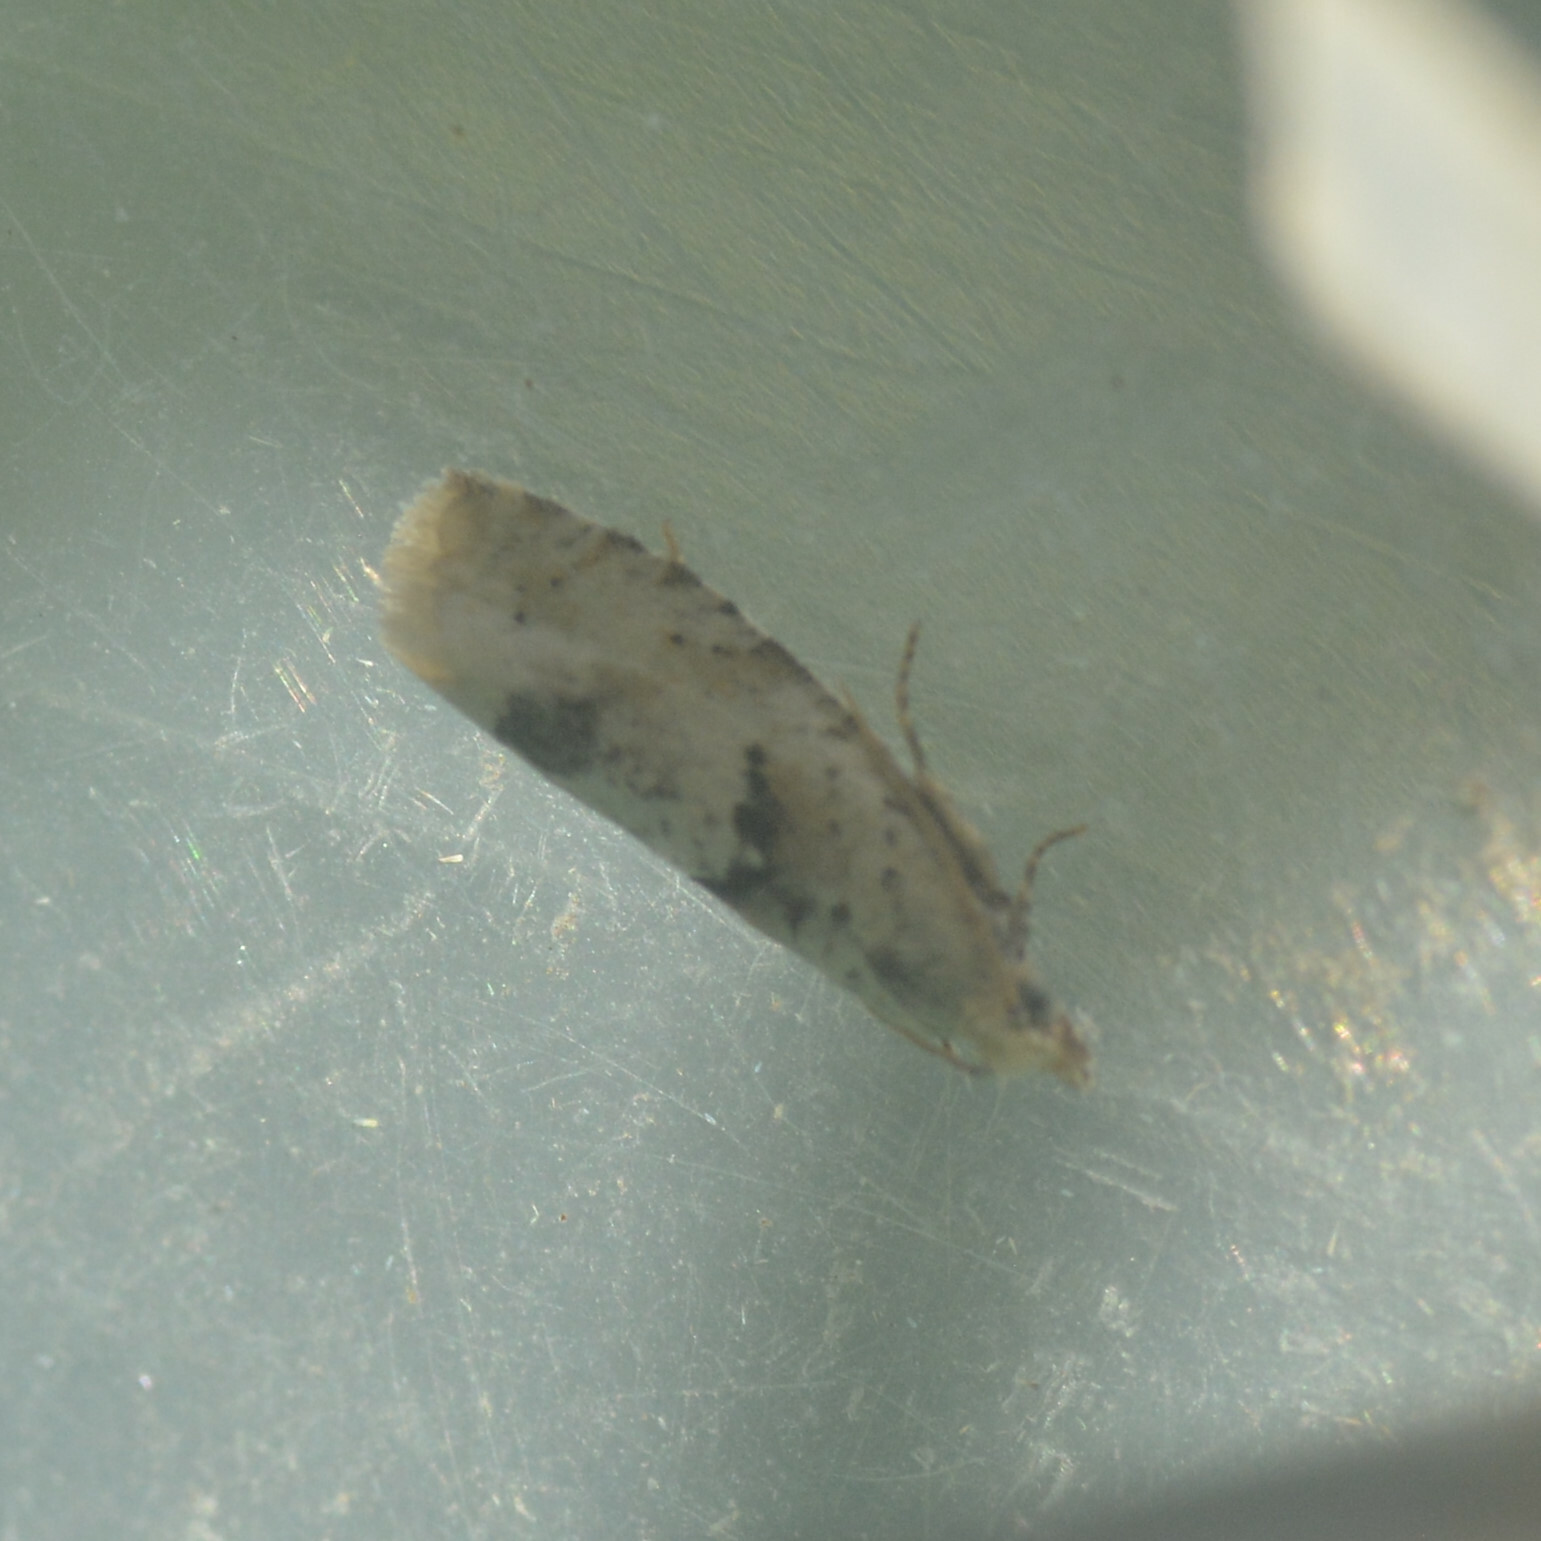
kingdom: Animalia
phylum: Arthropoda
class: Insecta
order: Lepidoptera
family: Tortricidae
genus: Epinotia
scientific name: Epinotia bilunana
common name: Crescent bell
